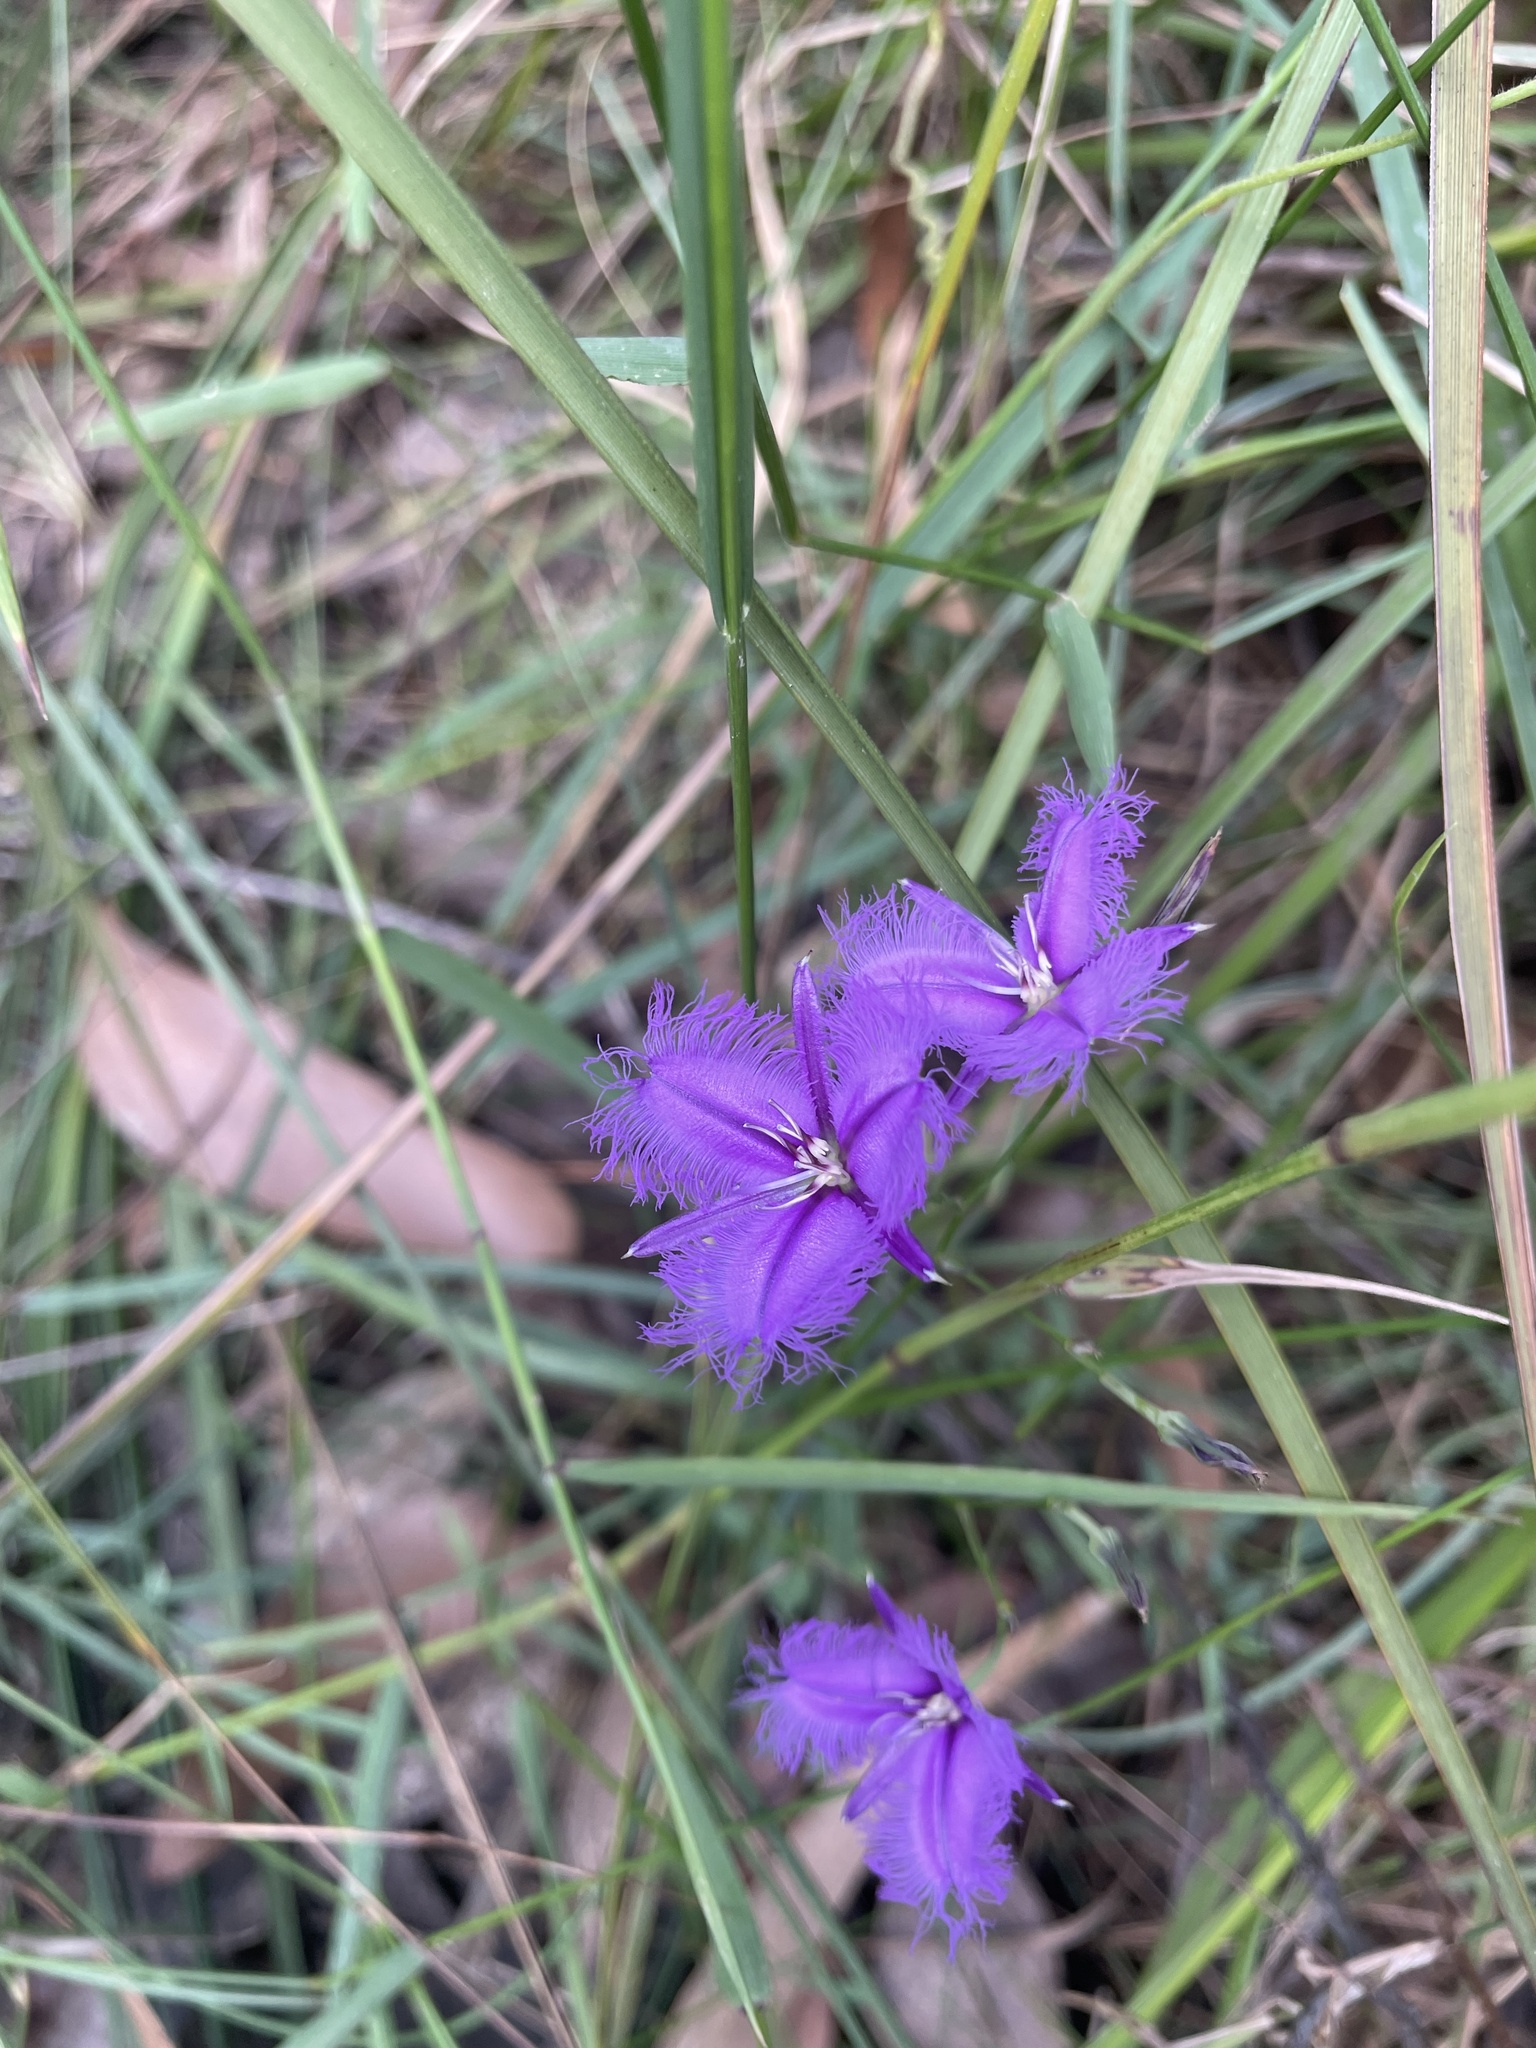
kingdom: Plantae
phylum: Tracheophyta
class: Liliopsida
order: Asparagales
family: Asparagaceae
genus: Thysanotus
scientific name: Thysanotus tuberosus
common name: Common fringed-lily
